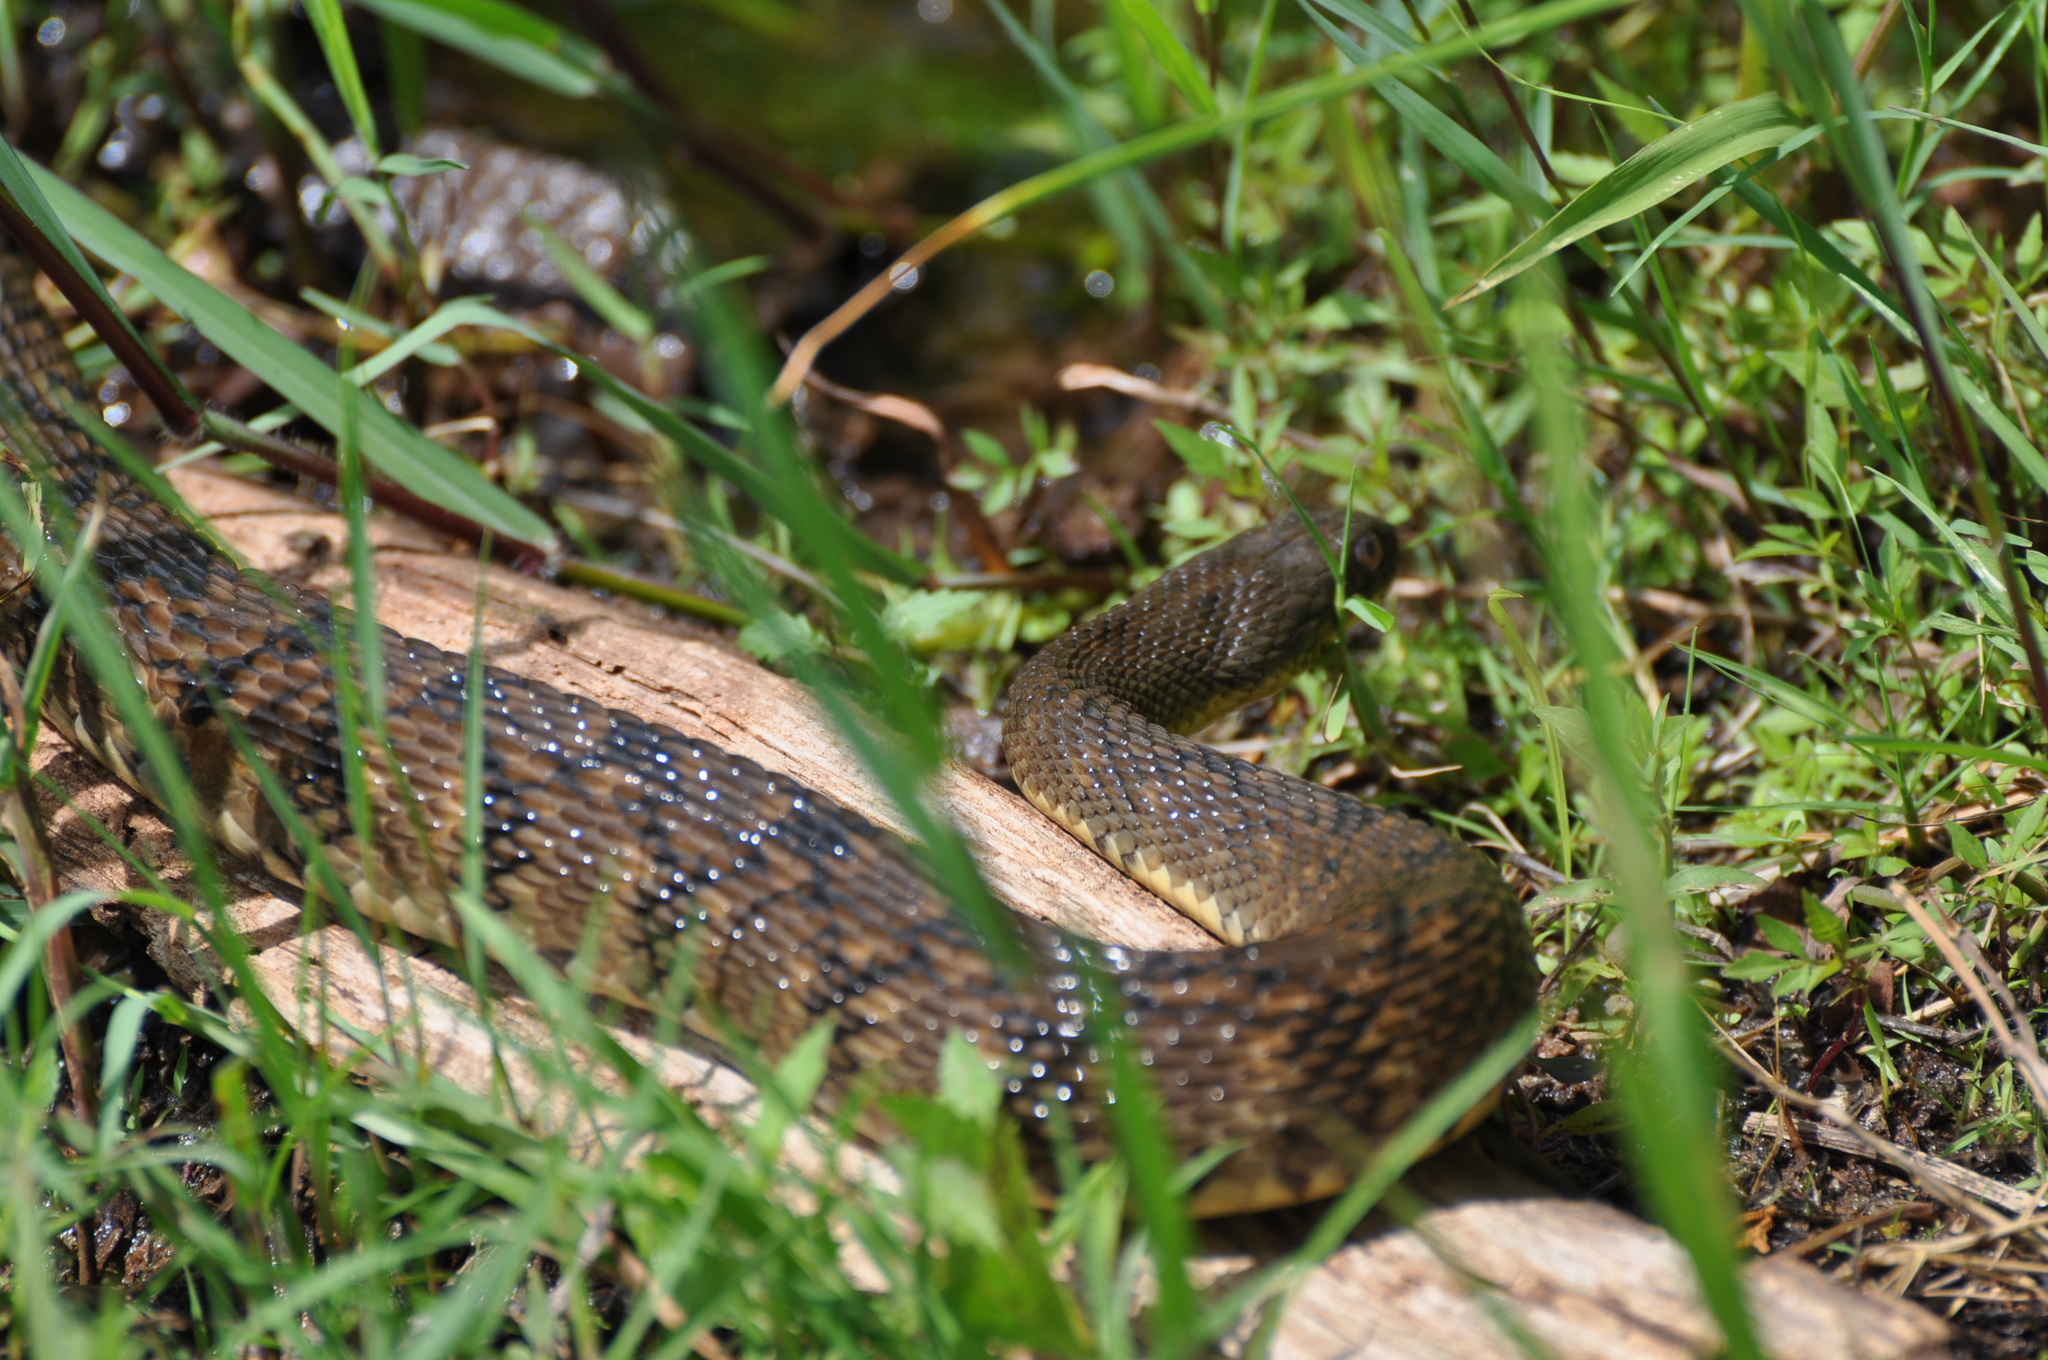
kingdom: Animalia
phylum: Chordata
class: Squamata
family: Colubridae
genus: Nerodia
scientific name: Nerodia rhombifer
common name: Diamondback water snake
